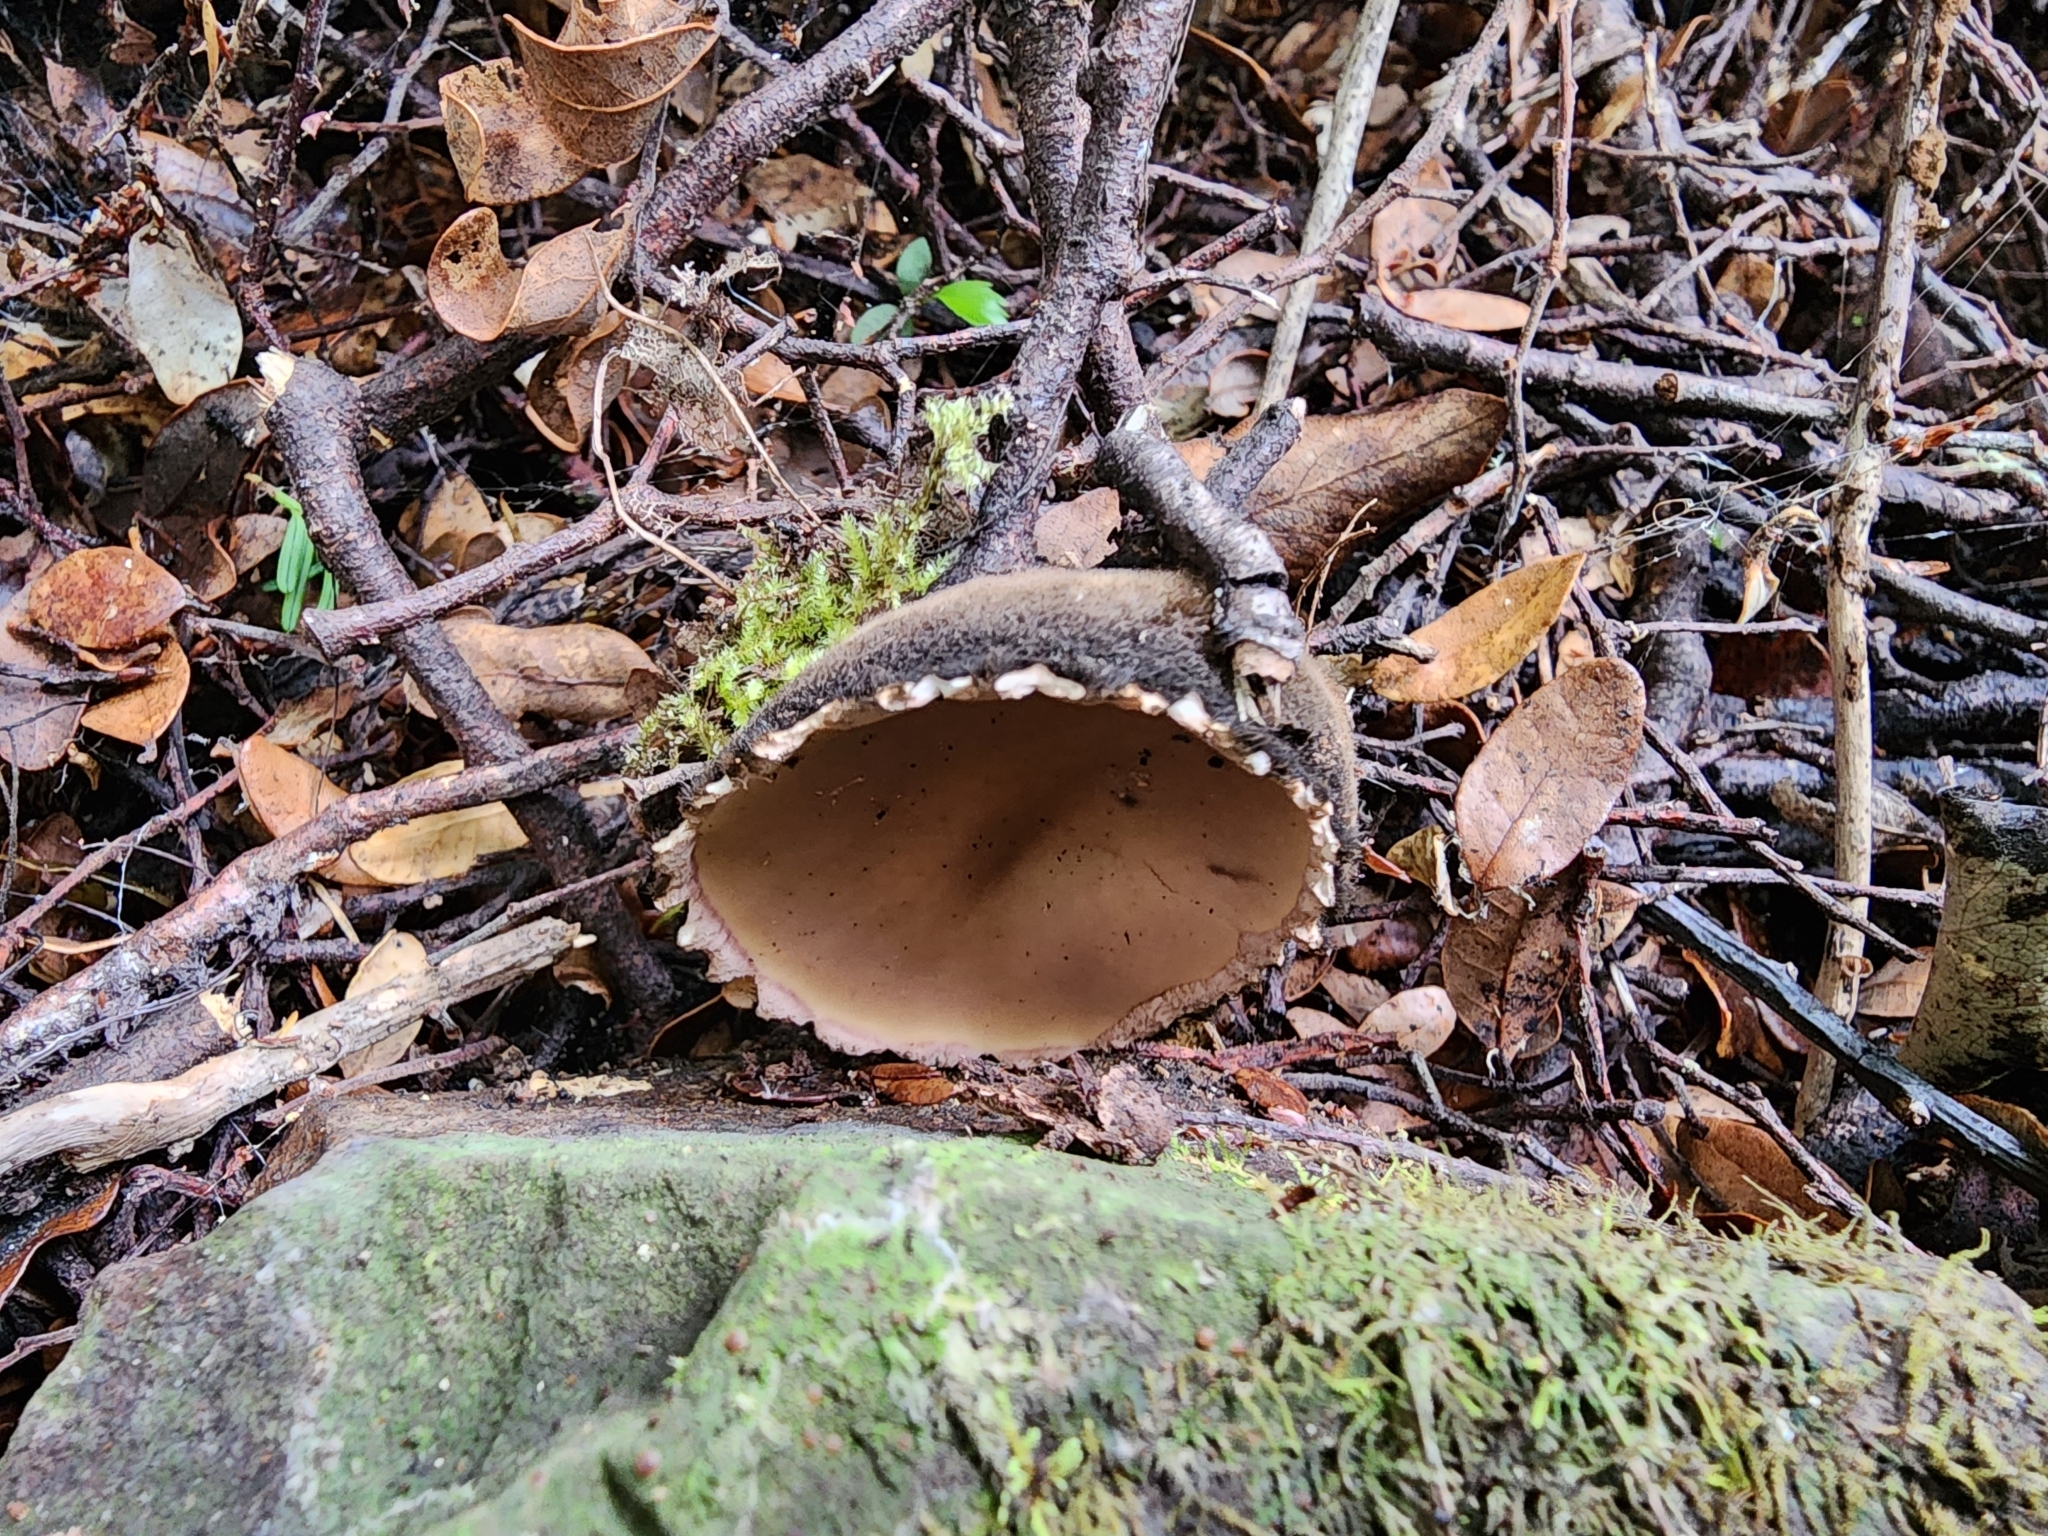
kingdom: Fungi
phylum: Ascomycota
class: Pezizomycetes
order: Pezizales
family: Sarcosomataceae
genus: Sarcosoma
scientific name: Sarcosoma orientale
